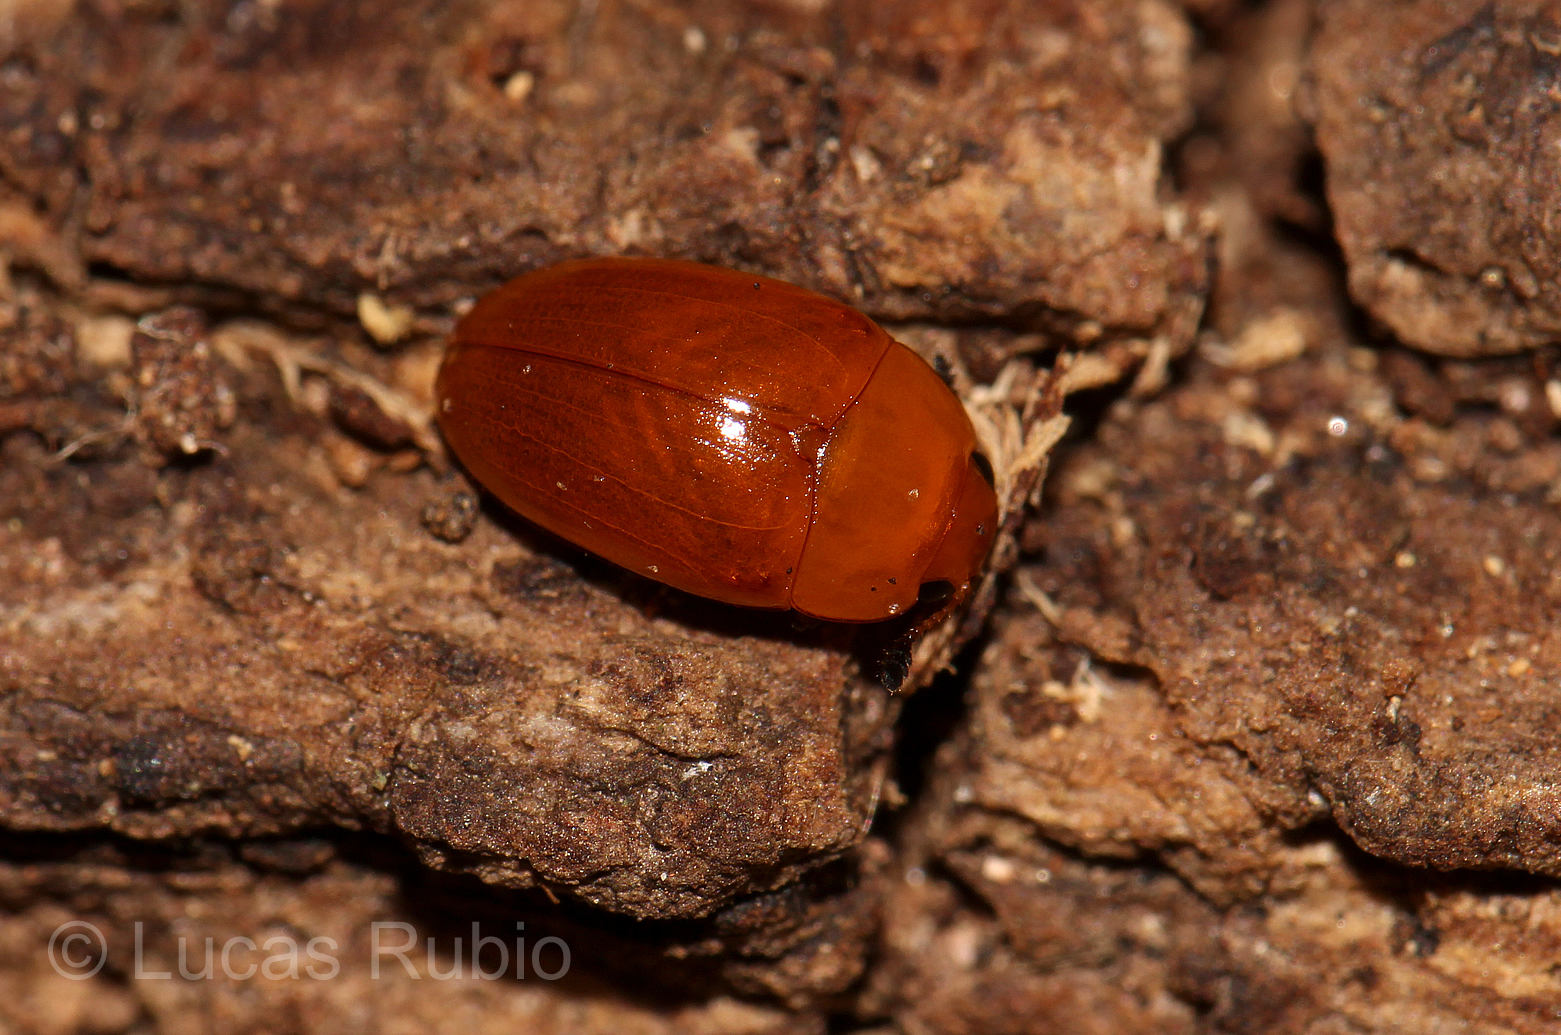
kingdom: Animalia
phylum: Arthropoda
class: Insecta
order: Coleoptera
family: Erotylidae
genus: Mycomystes
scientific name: Mycomystes nigriventris
